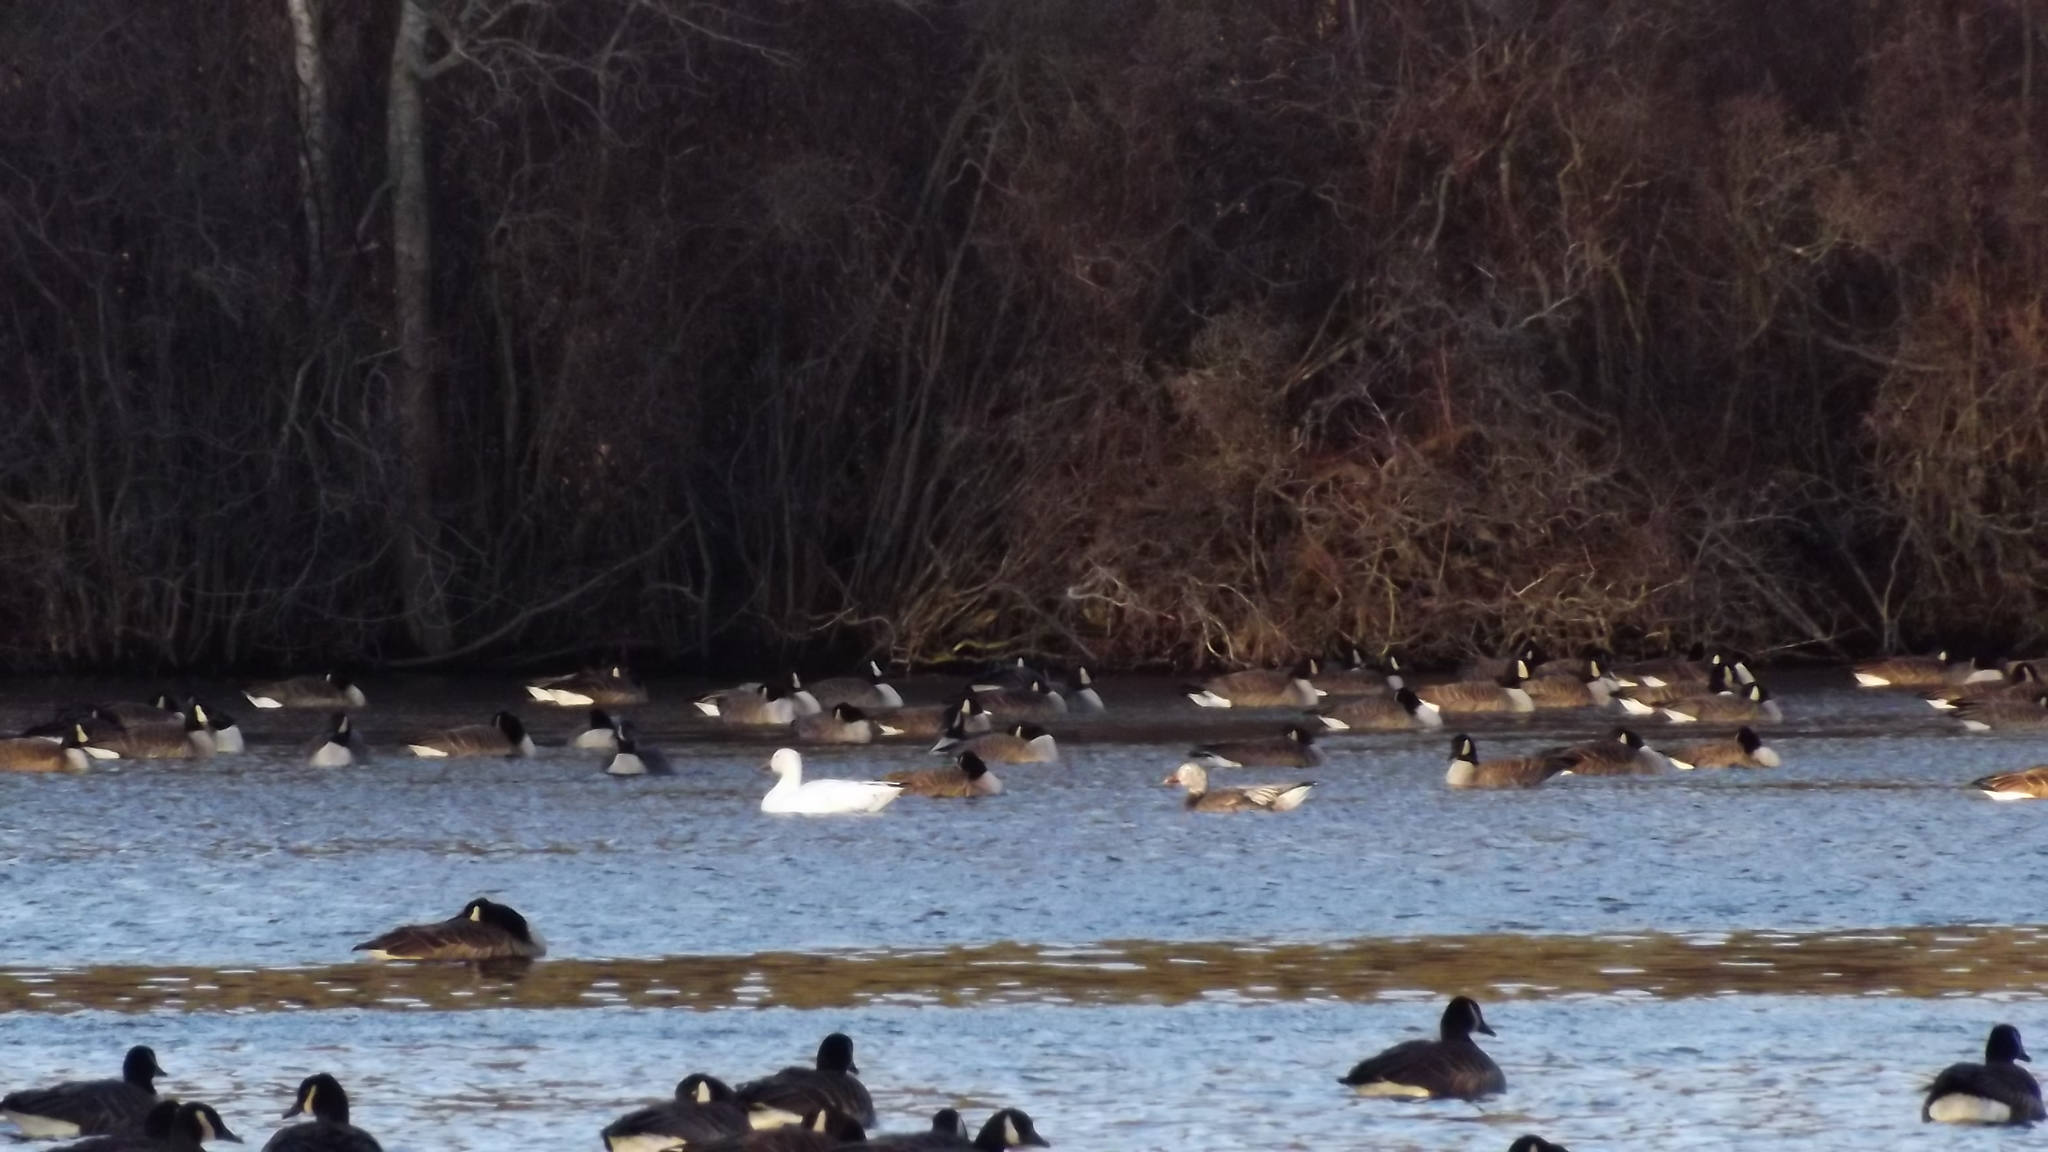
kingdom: Animalia
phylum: Chordata
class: Aves
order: Anseriformes
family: Anatidae
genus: Anser
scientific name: Anser caerulescens
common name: Snow goose
